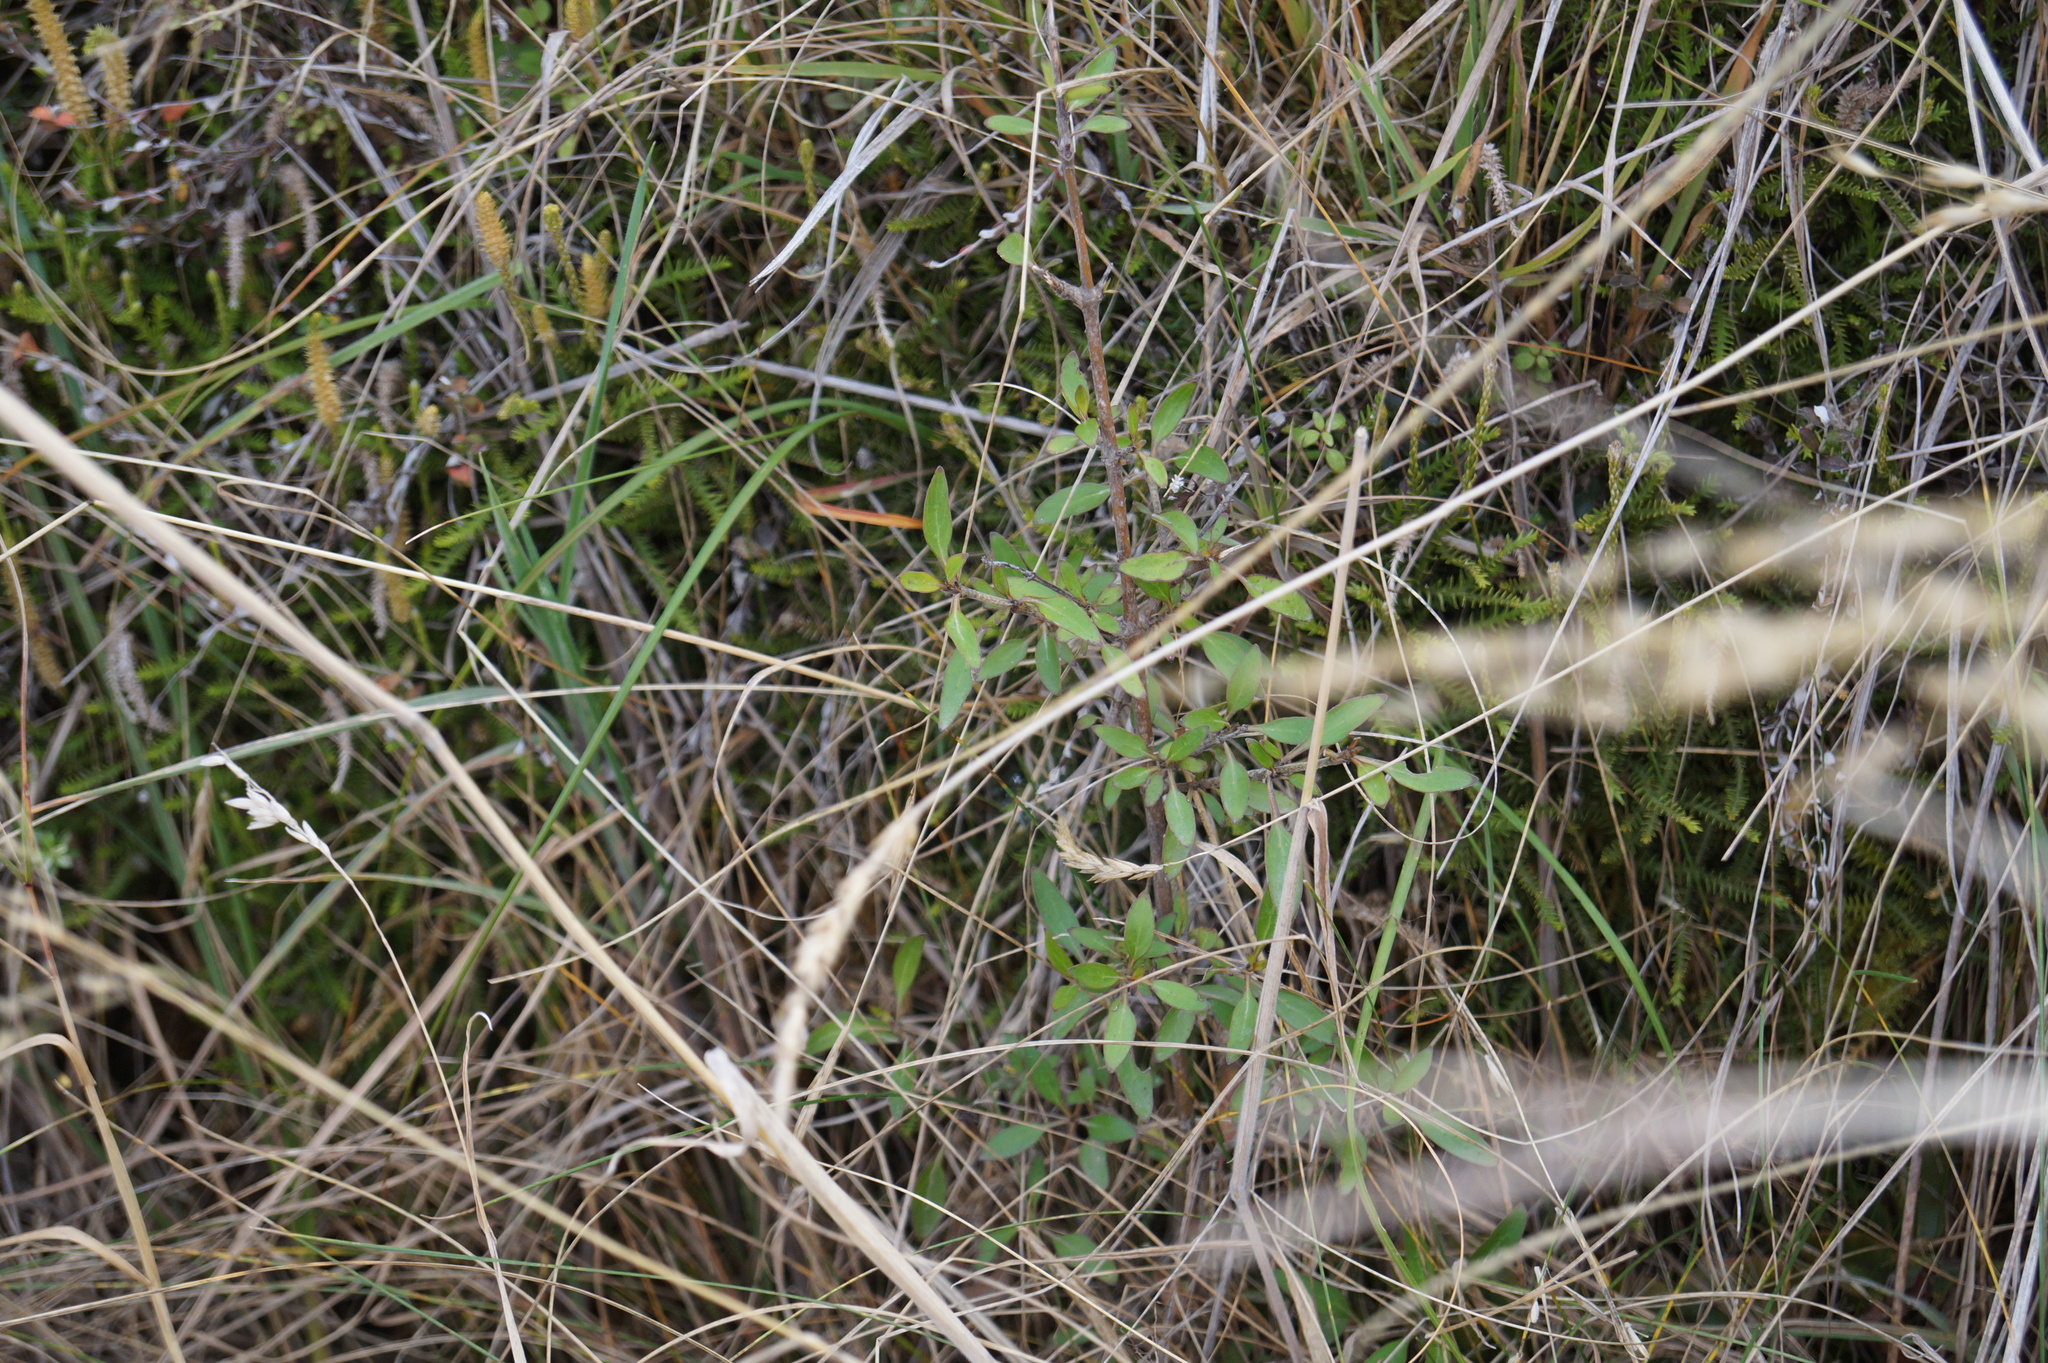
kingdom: Plantae
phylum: Tracheophyta
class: Magnoliopsida
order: Gentianales
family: Rubiaceae
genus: Coprosma
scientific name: Coprosma cunninghamii
